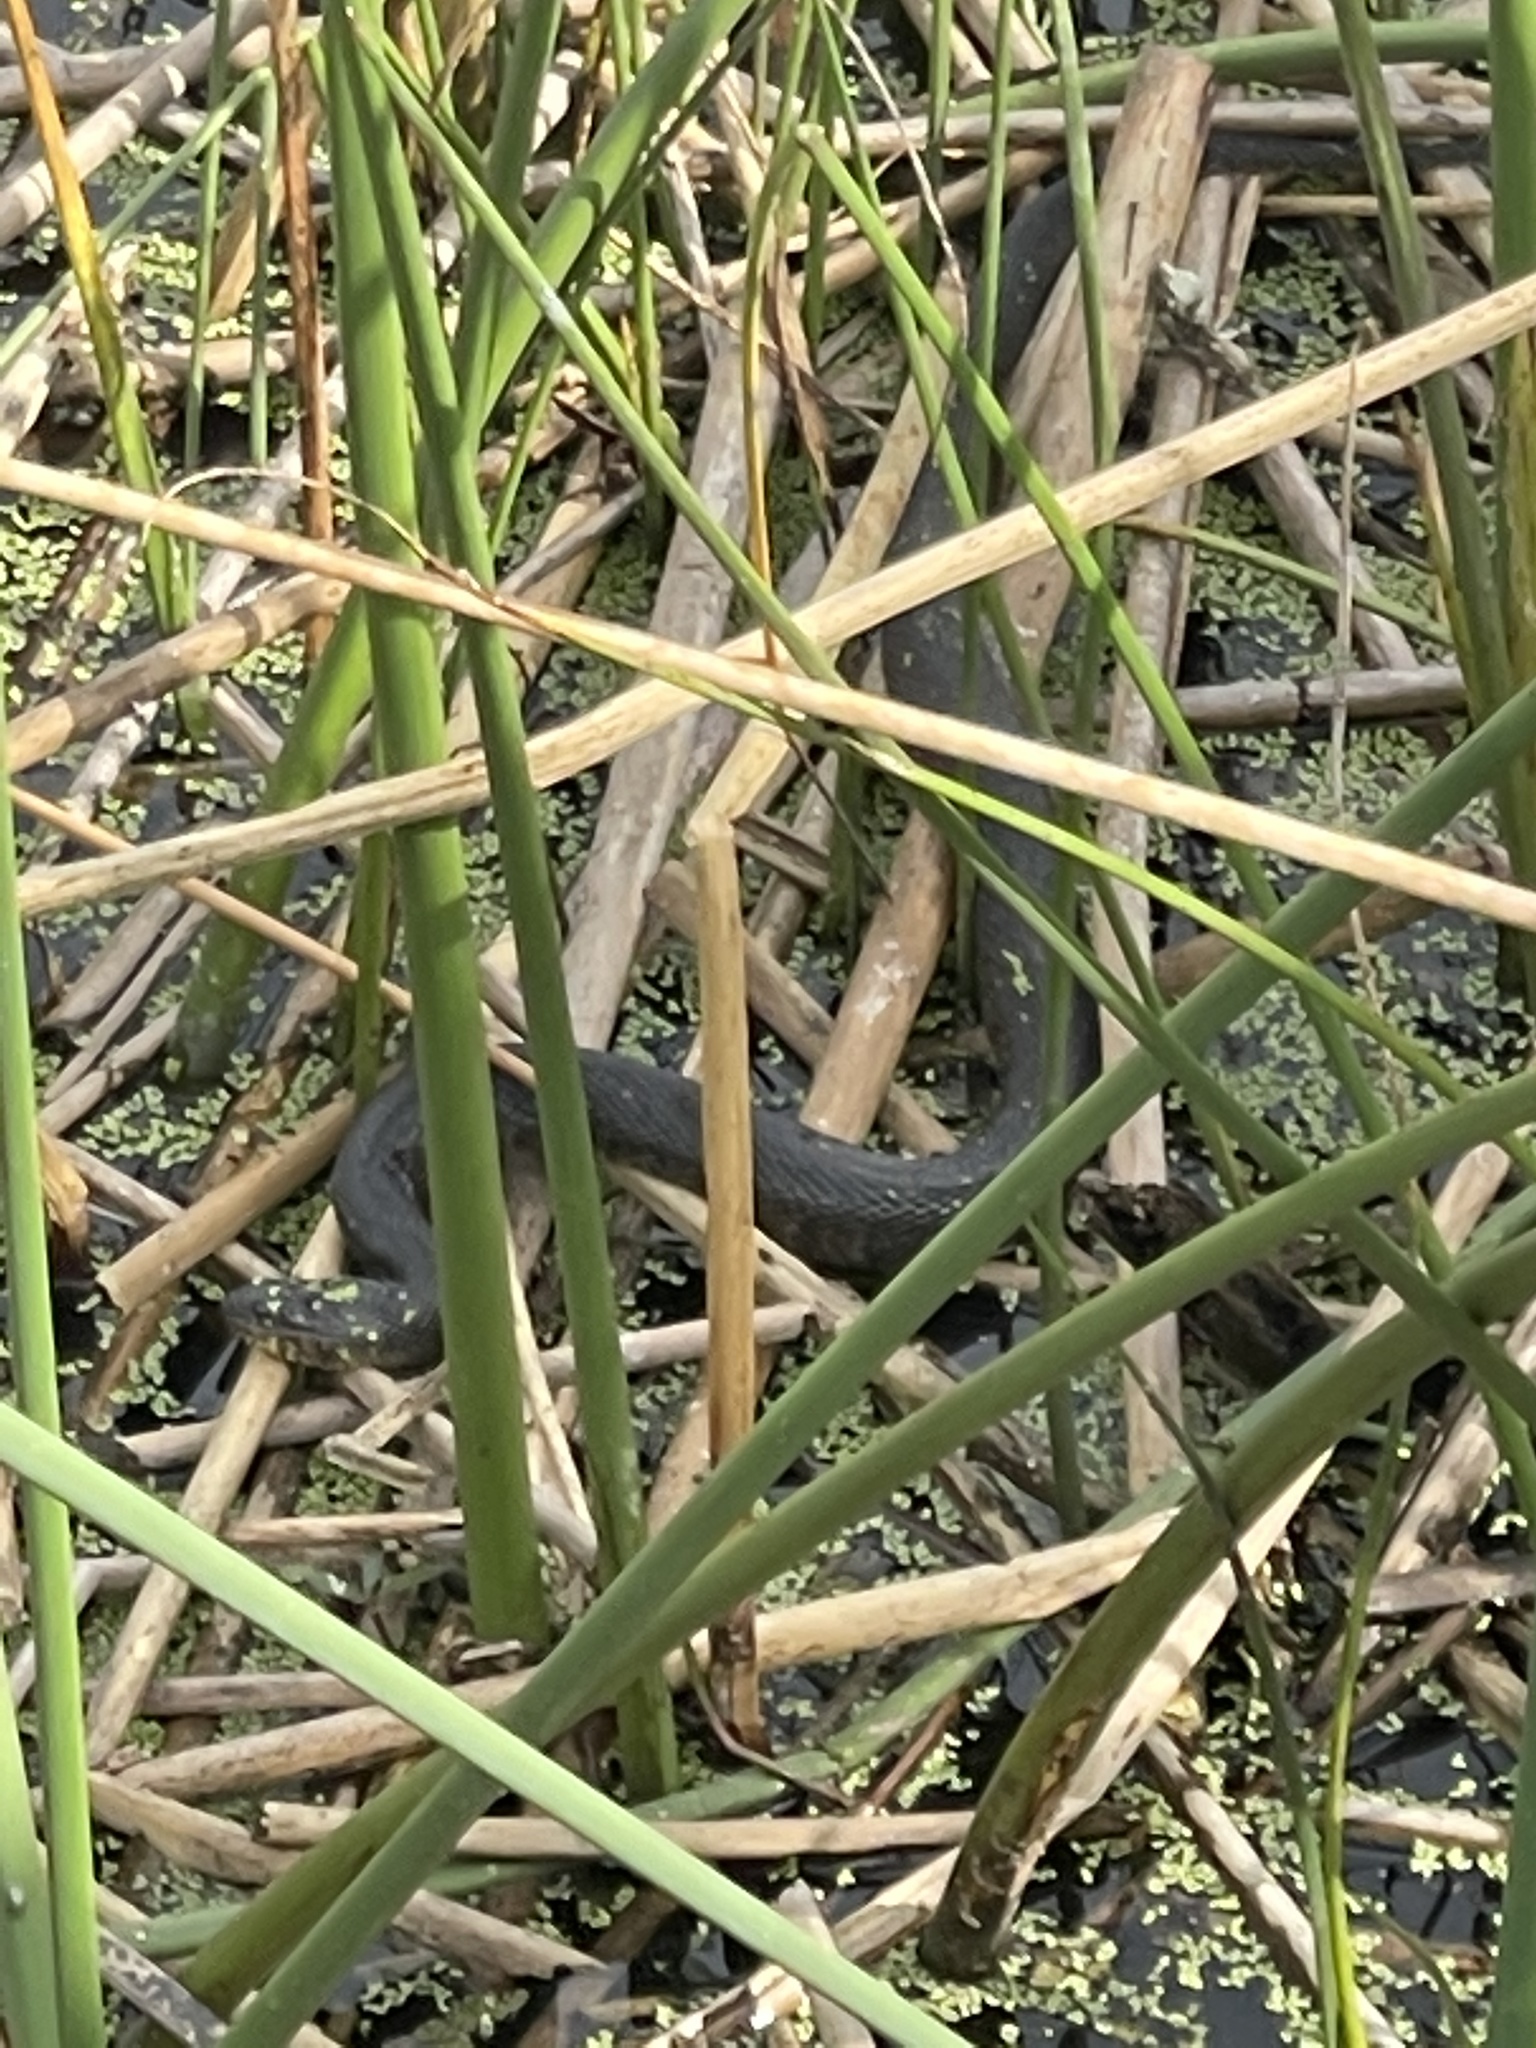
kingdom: Animalia
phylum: Chordata
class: Squamata
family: Colubridae
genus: Nerodia
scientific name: Nerodia floridana
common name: Florida green watersnake
